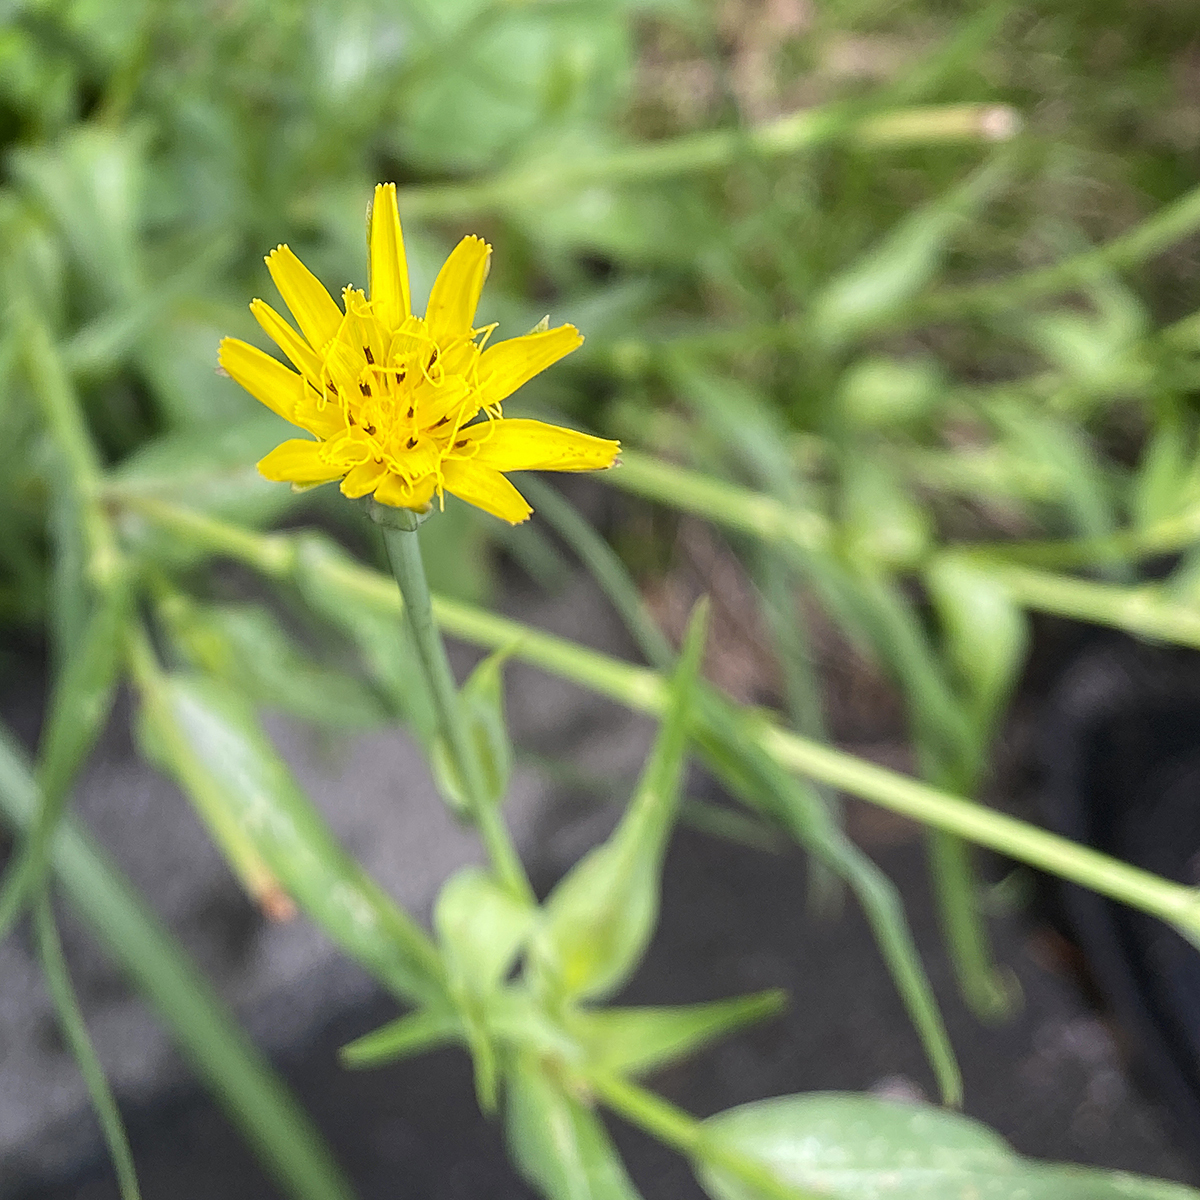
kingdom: Plantae
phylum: Tracheophyta
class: Magnoliopsida
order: Asterales
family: Asteraceae
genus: Tragopogon
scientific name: Tragopogon pratensis
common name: Goat's-beard
